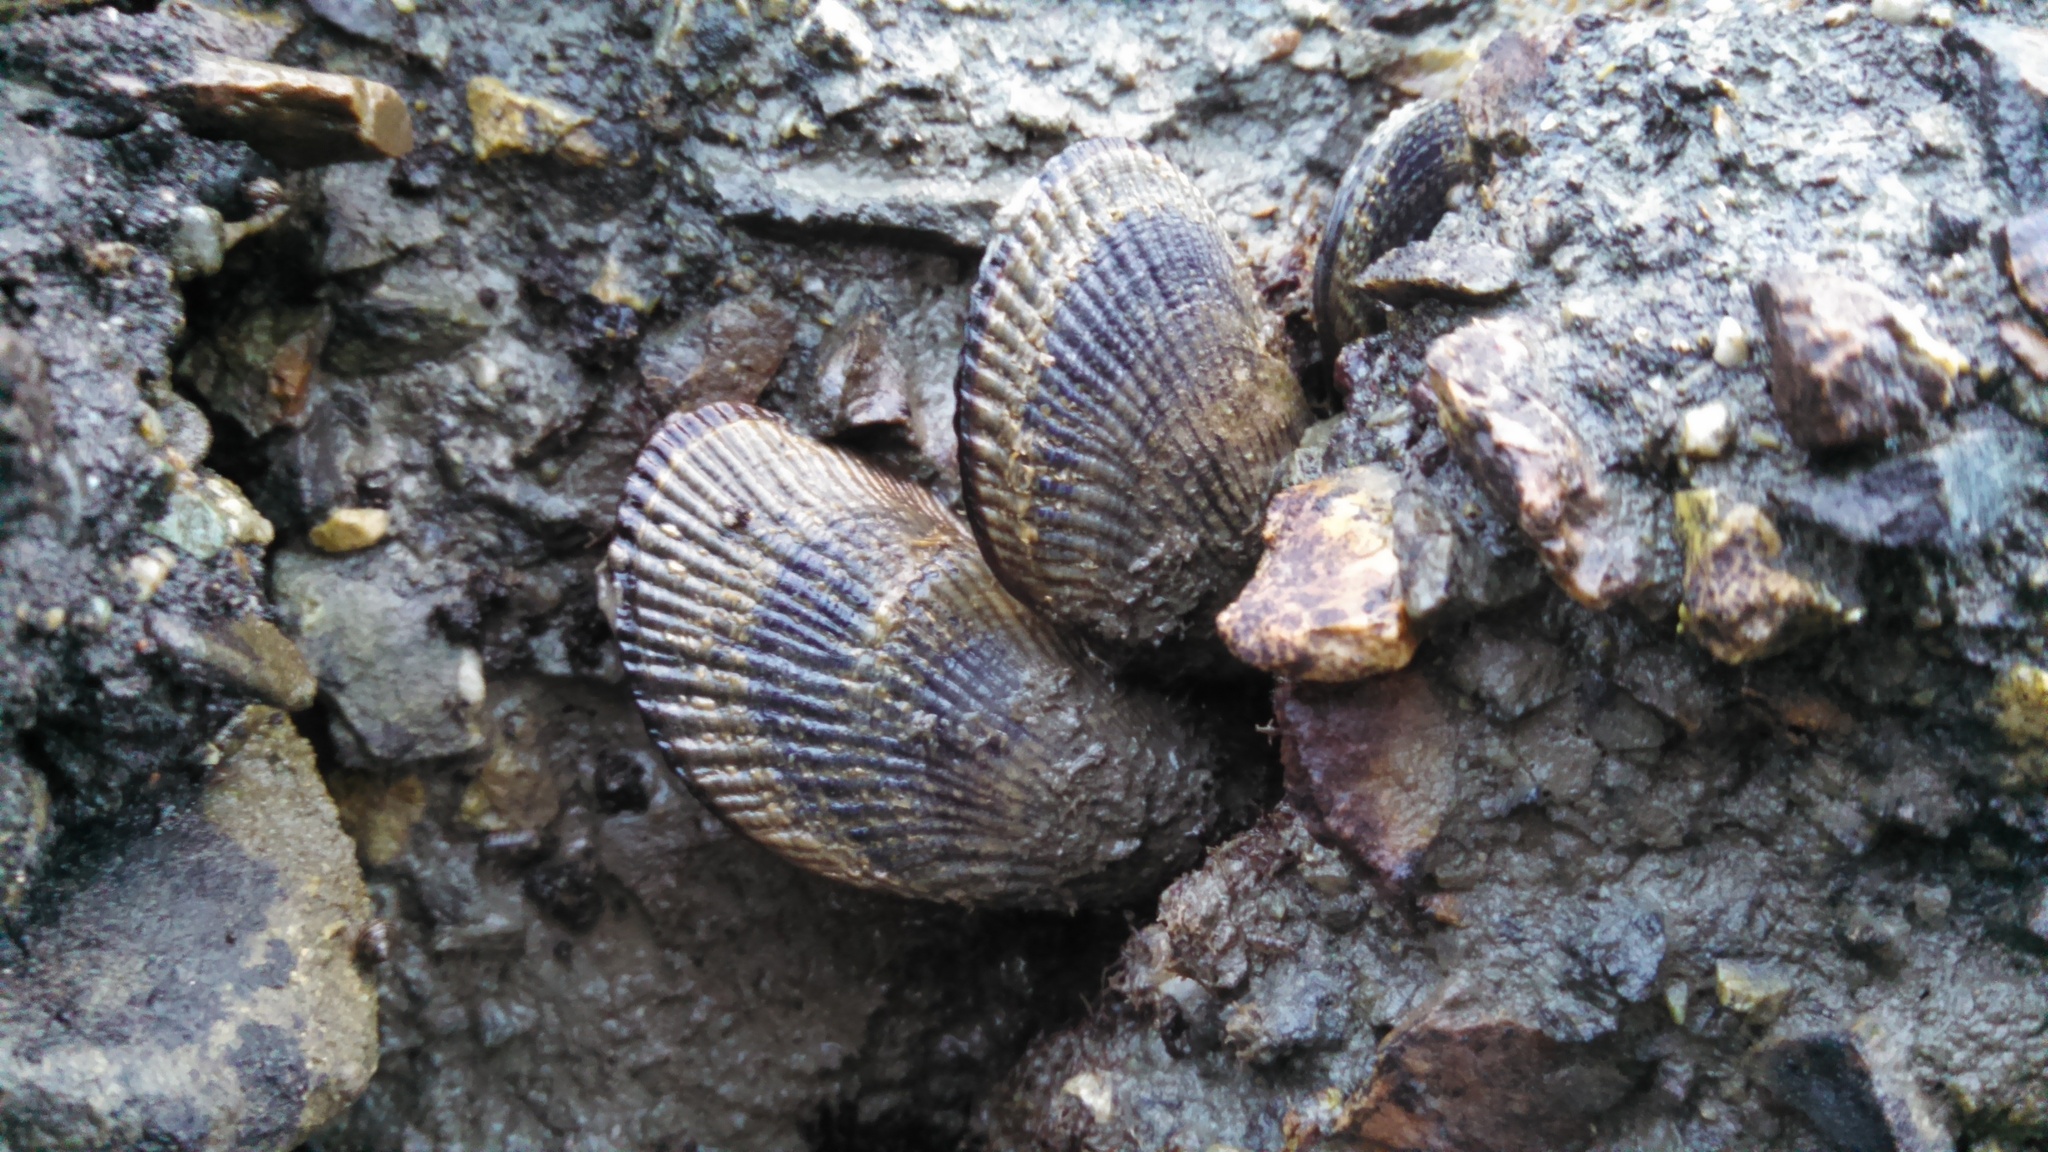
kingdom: Animalia
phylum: Mollusca
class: Bivalvia
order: Mytilida
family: Mytilidae
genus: Geukensia
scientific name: Geukensia demissa
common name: Ribbed mussel
